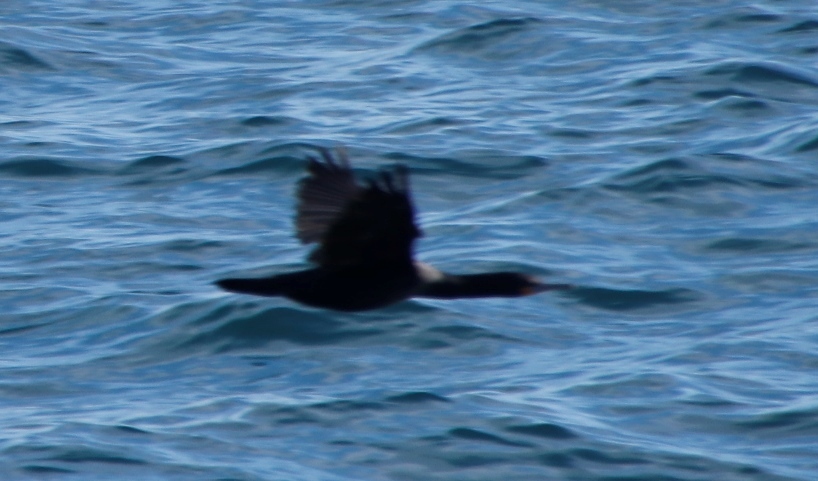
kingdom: Animalia
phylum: Chordata
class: Aves
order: Suliformes
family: Phalacrocoracidae
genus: Phalacrocorax
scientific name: Phalacrocorax capensis
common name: Cape cormorant
